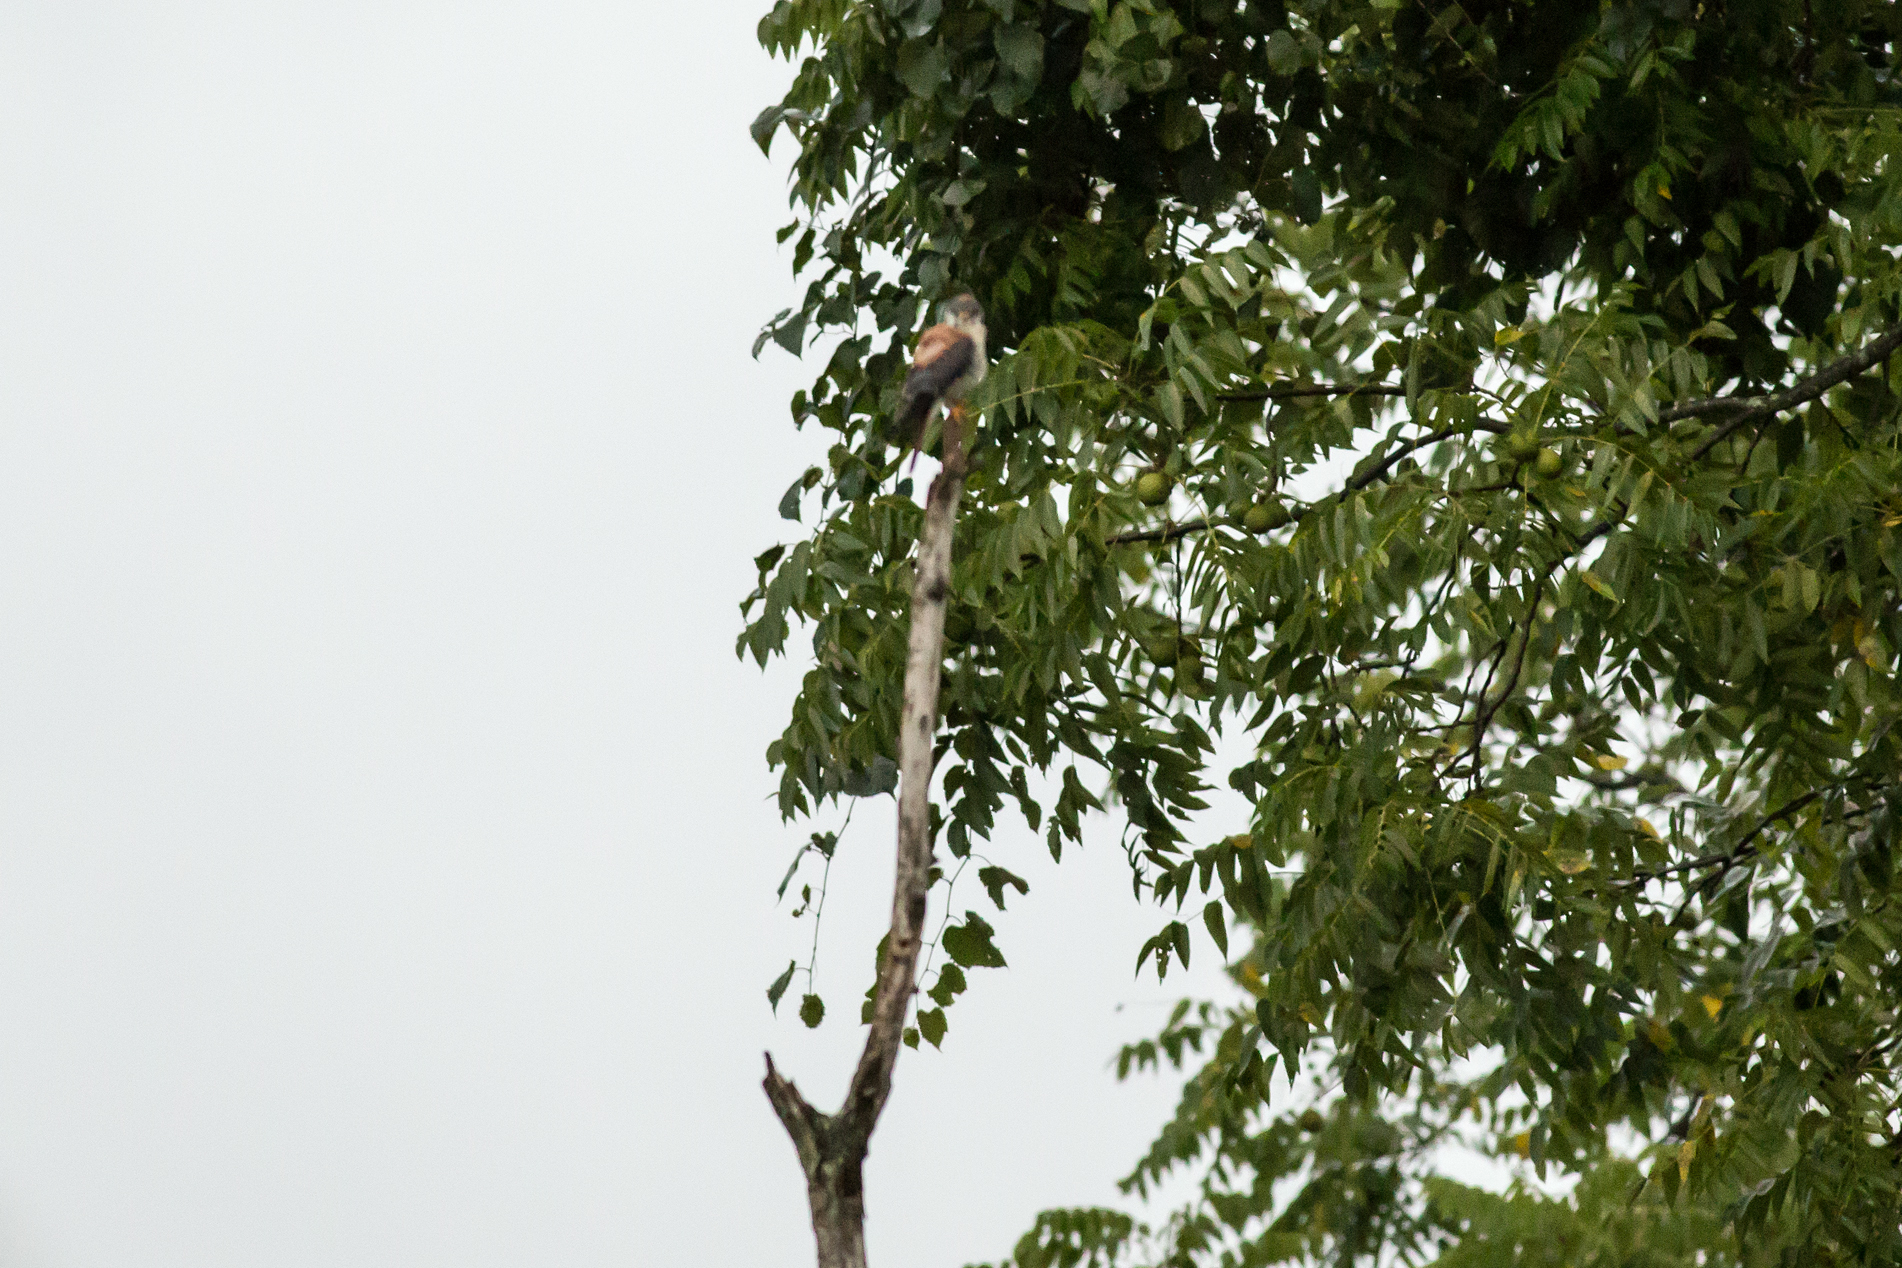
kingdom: Animalia
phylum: Chordata
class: Aves
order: Falconiformes
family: Falconidae
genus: Falco
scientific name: Falco sparverius
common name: American kestrel
